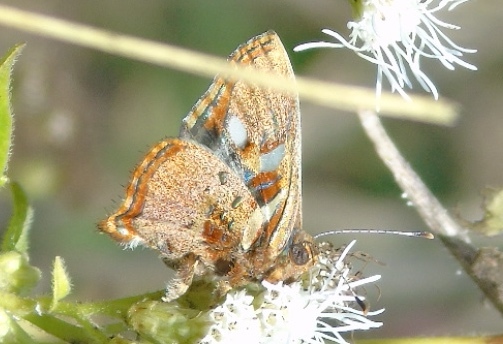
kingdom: Animalia
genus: Anteros
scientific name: Anteros carausius
